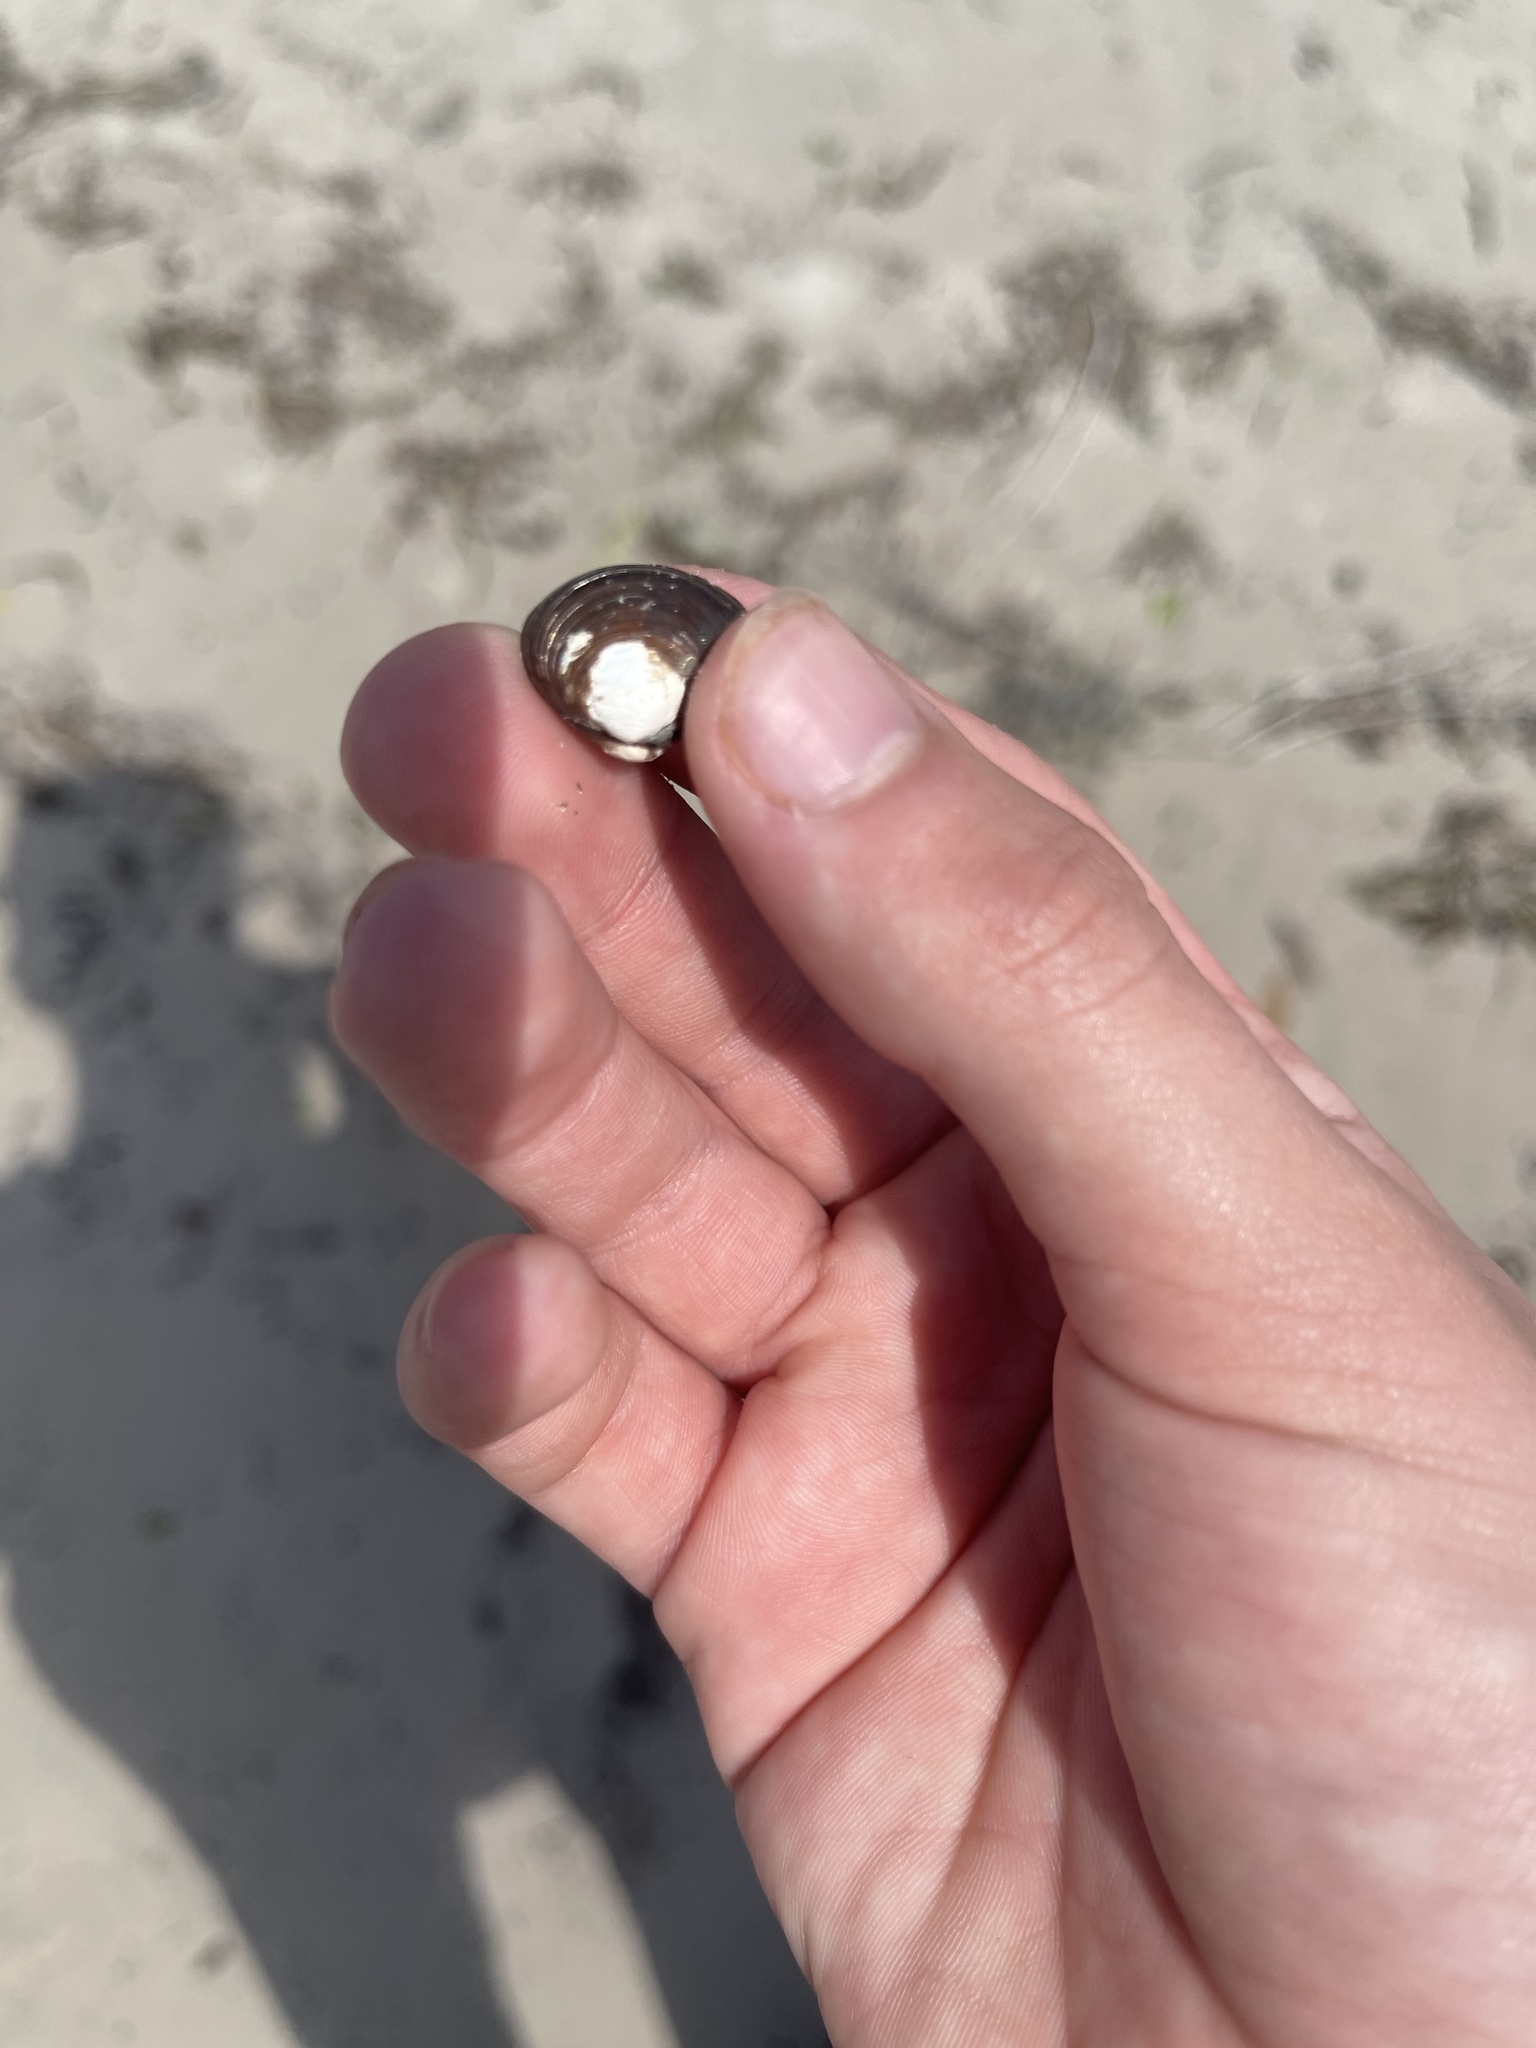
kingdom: Animalia
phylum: Mollusca
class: Bivalvia
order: Venerida
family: Cyrenidae
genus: Corbicula
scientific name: Corbicula fluminea
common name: Asian clam
